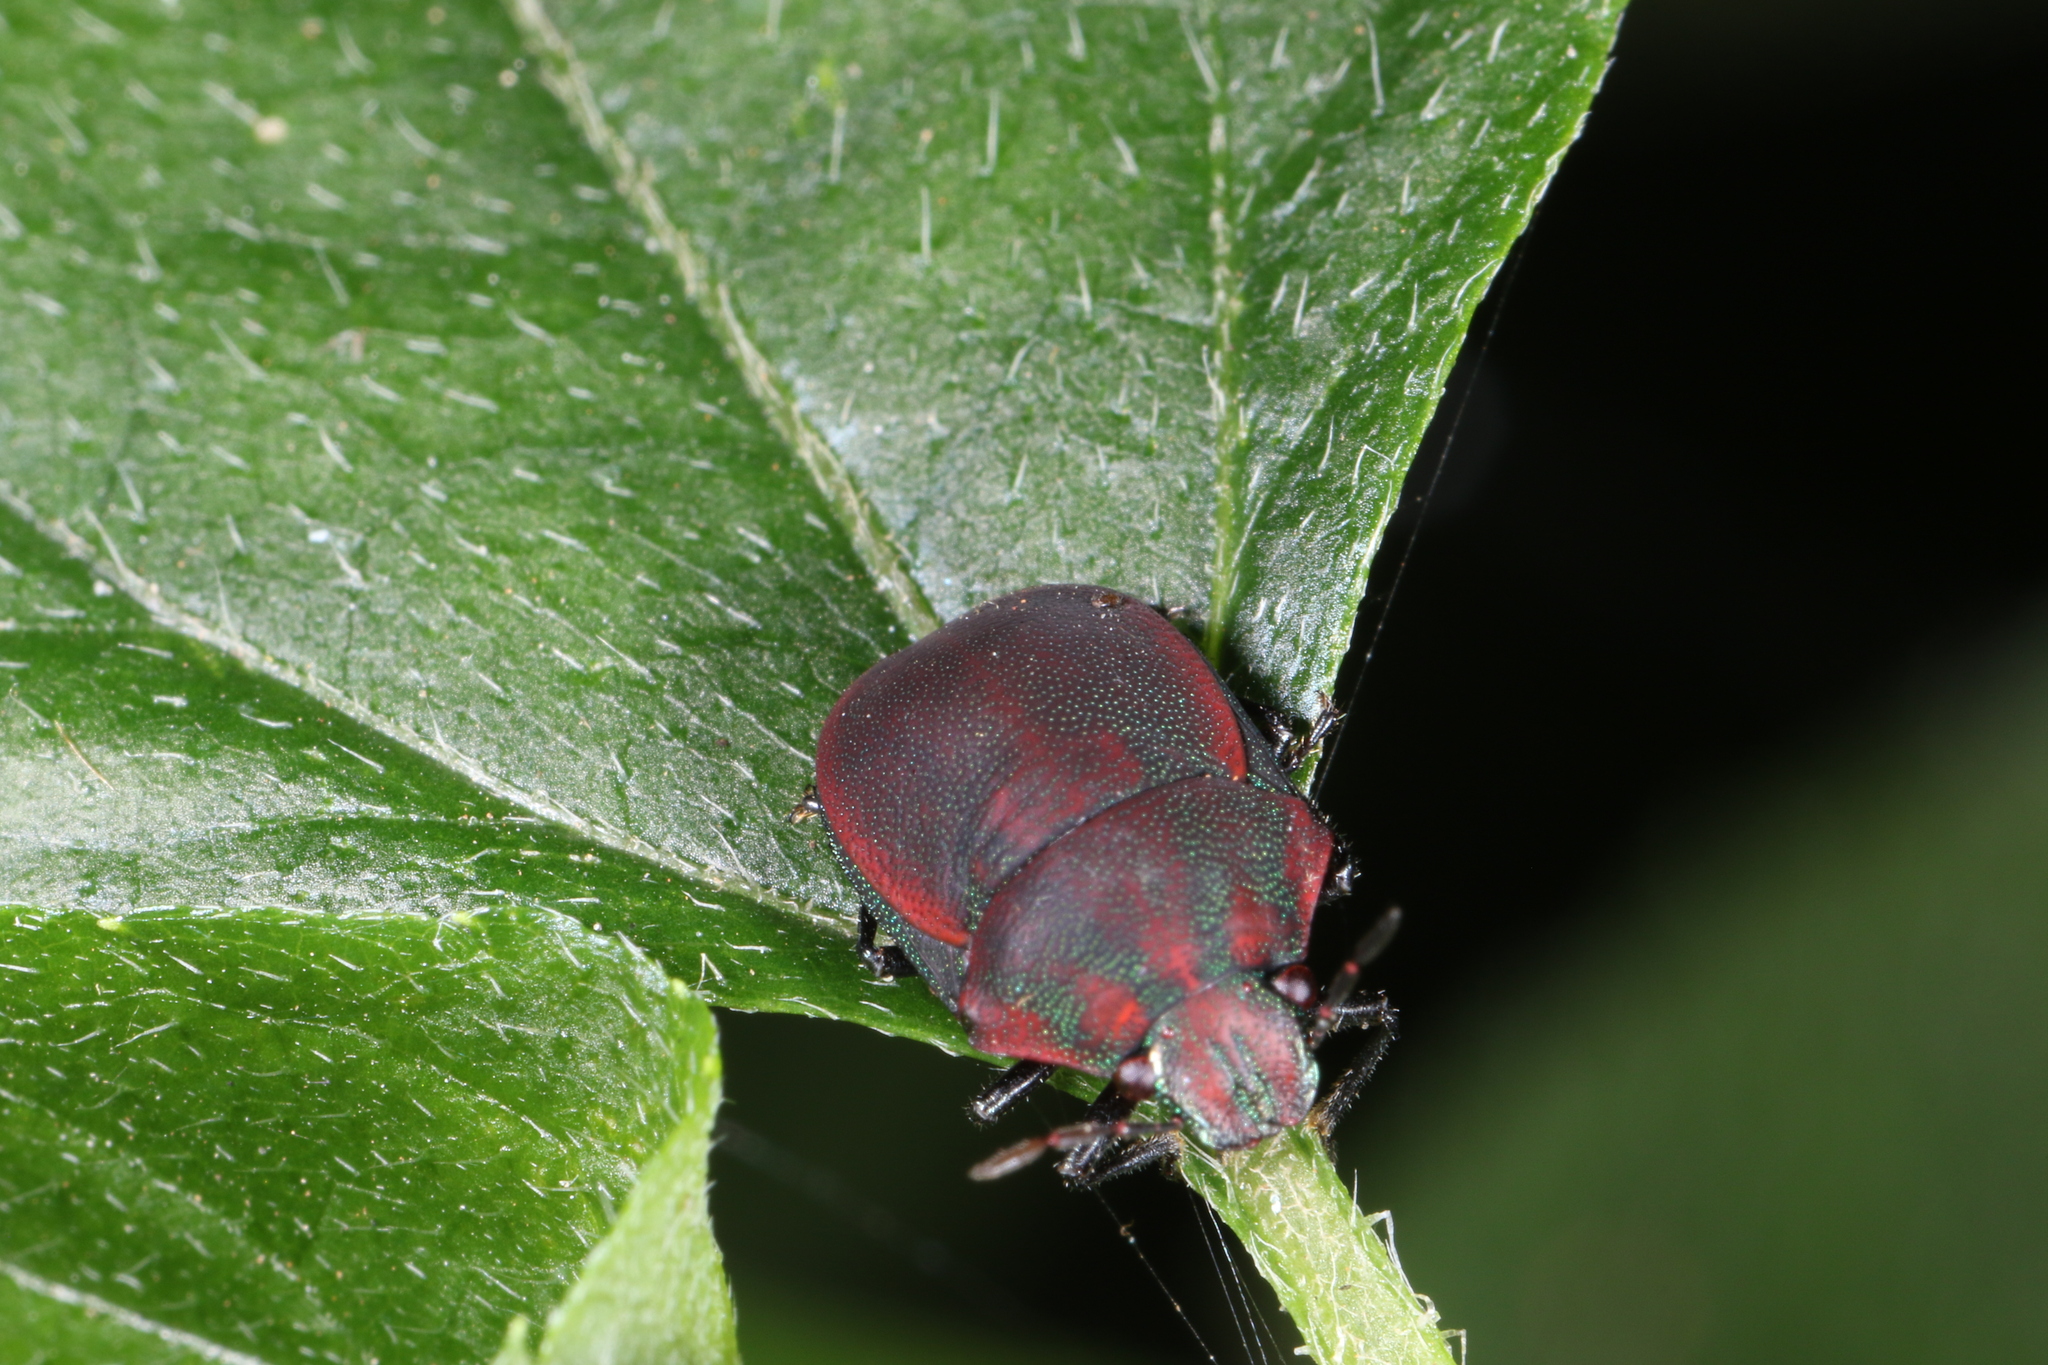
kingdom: Animalia
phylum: Arthropoda
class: Insecta
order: Hemiptera
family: Scutelleridae
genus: Coptochilus
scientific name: Coptochilus ferrugineus
